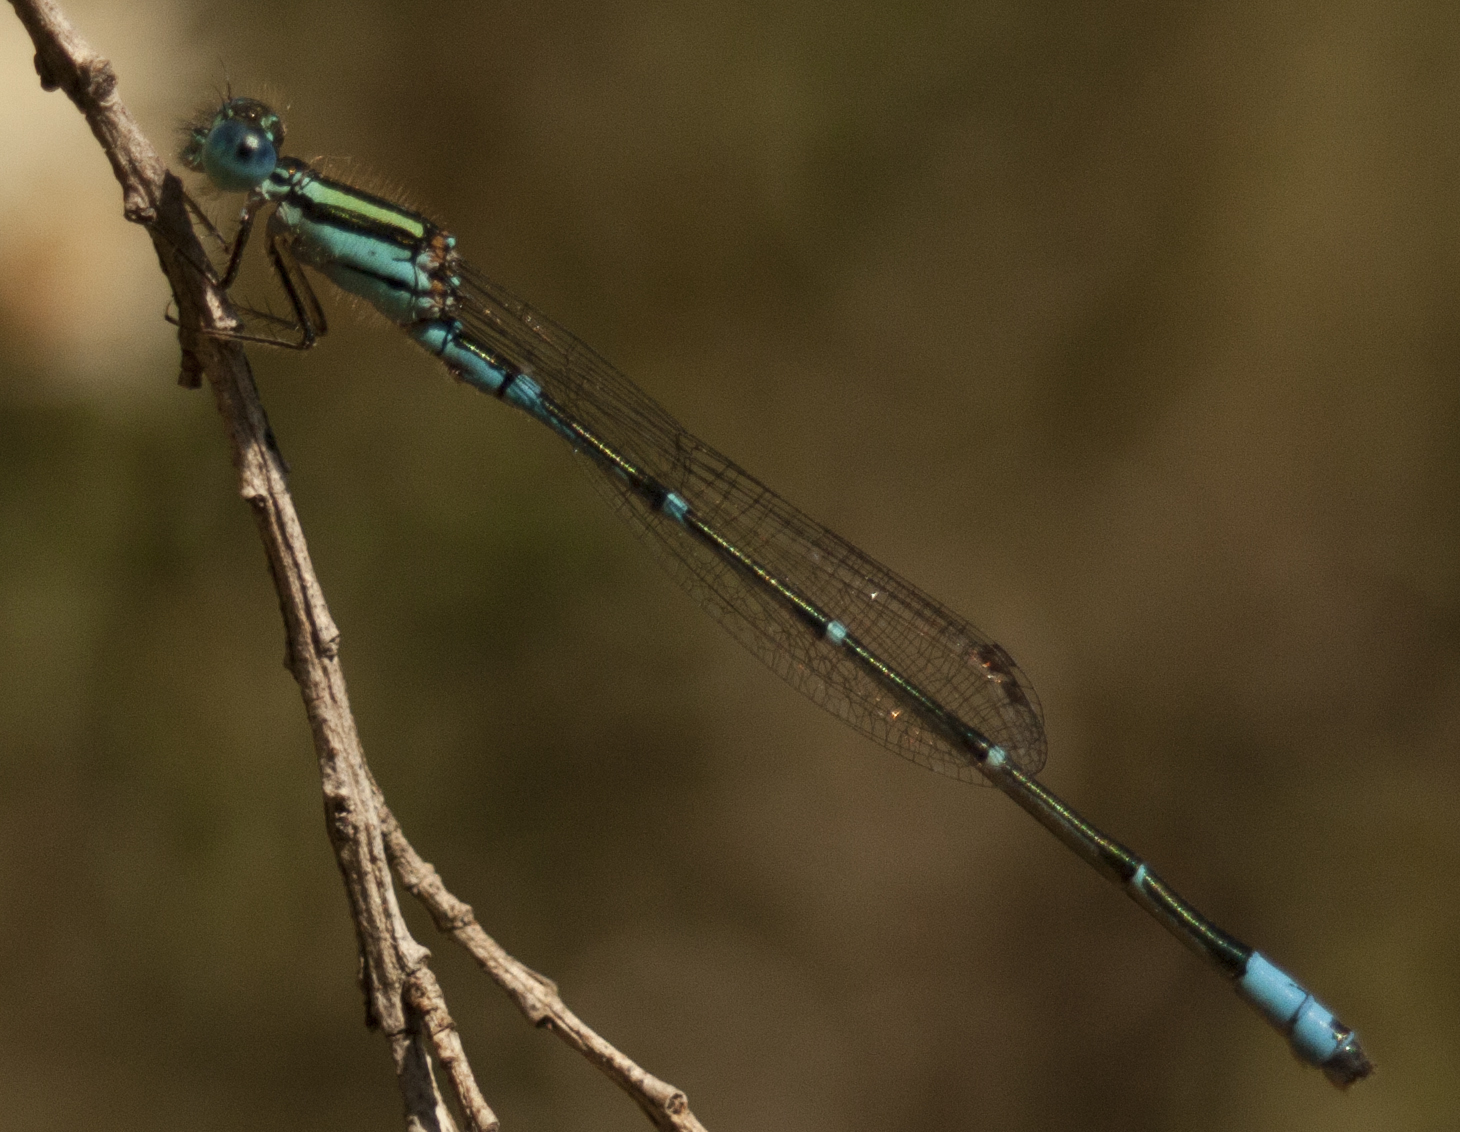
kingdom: Animalia
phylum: Arthropoda
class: Insecta
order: Odonata
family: Coenagrionidae
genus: Austroagrion
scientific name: Austroagrion watsoni
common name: Eastern billabongfly
